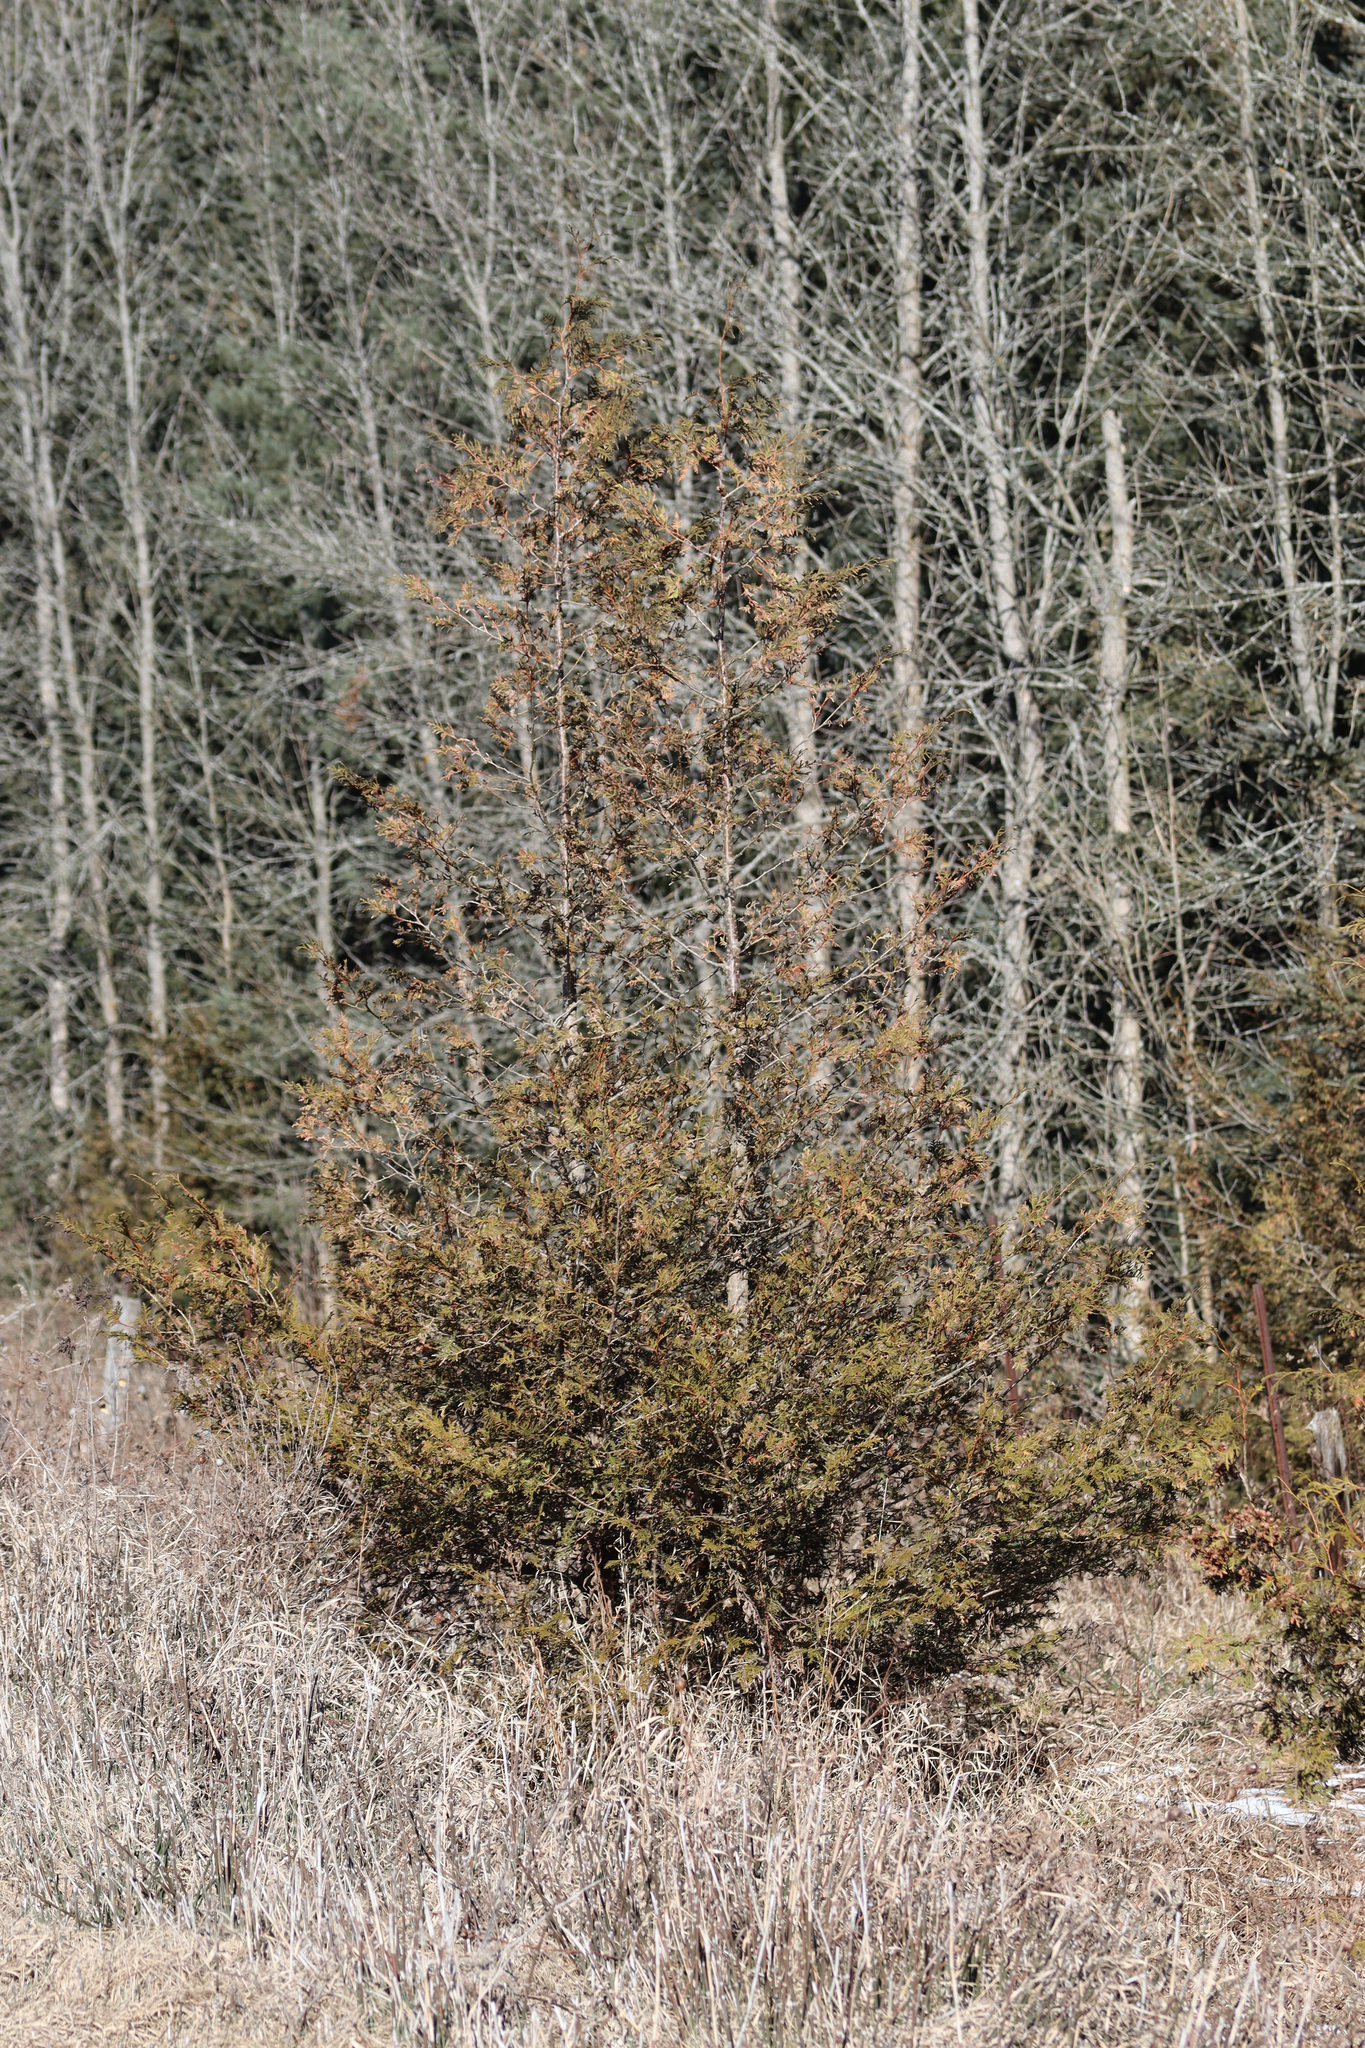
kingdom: Plantae
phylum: Tracheophyta
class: Pinopsida
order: Pinales
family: Cupressaceae
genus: Thuja
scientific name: Thuja occidentalis
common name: Northern white-cedar
